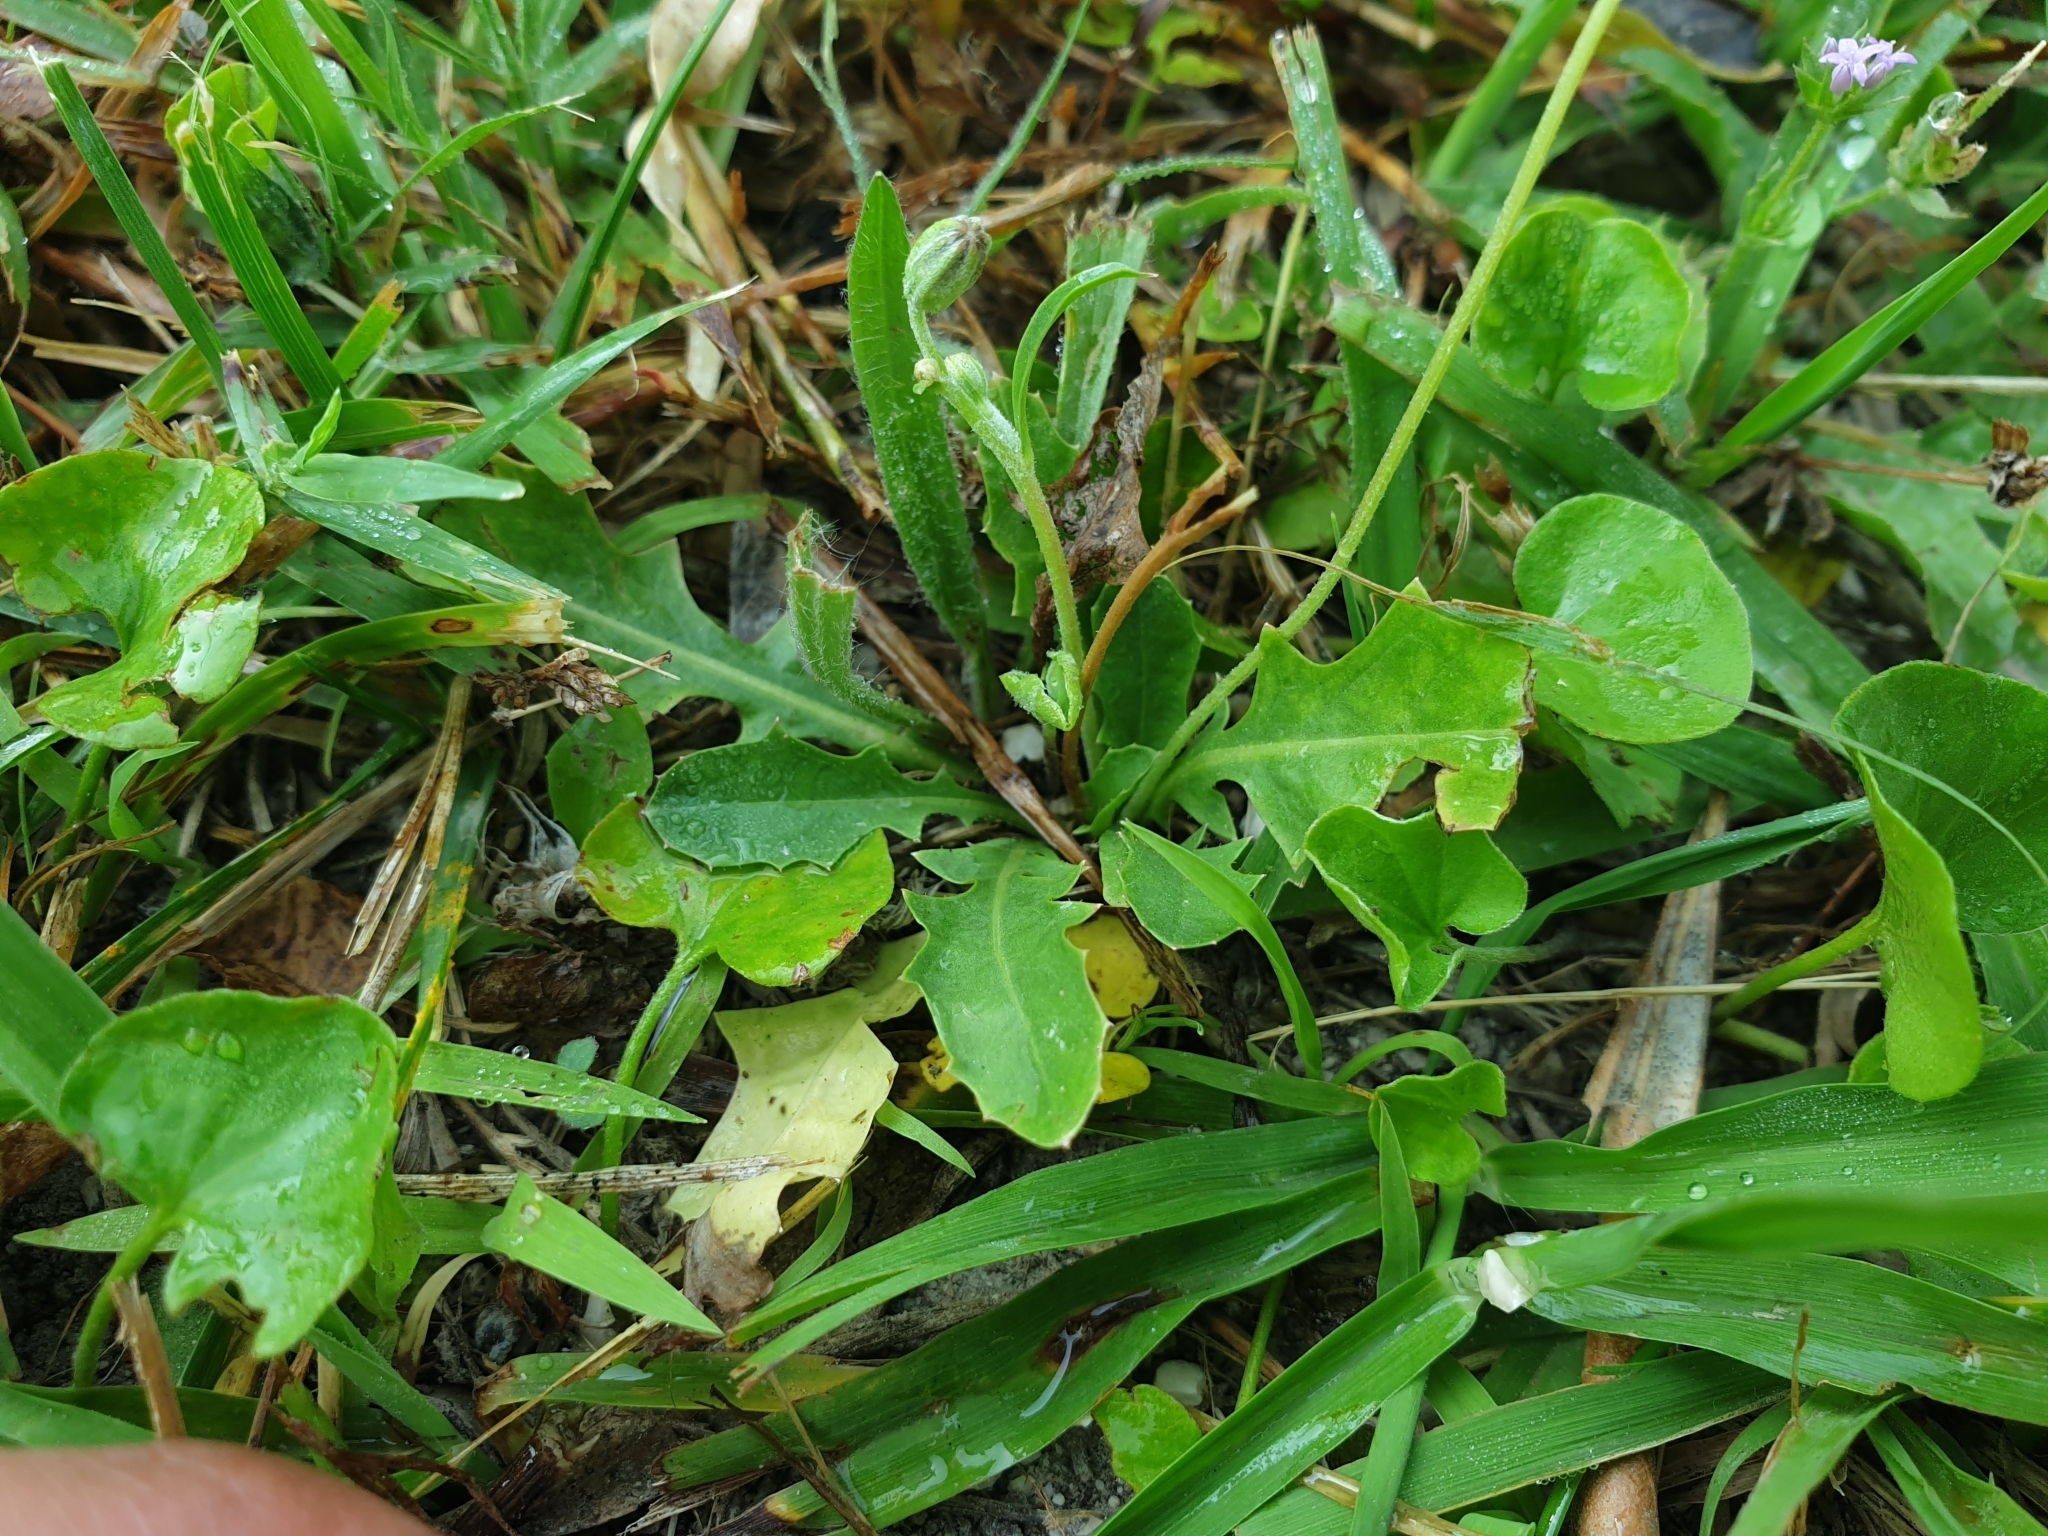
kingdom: Plantae
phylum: Tracheophyta
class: Magnoliopsida
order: Asterales
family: Asteraceae
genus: Crepis
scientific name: Crepis bursifolia
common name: Italian hawksbeard
